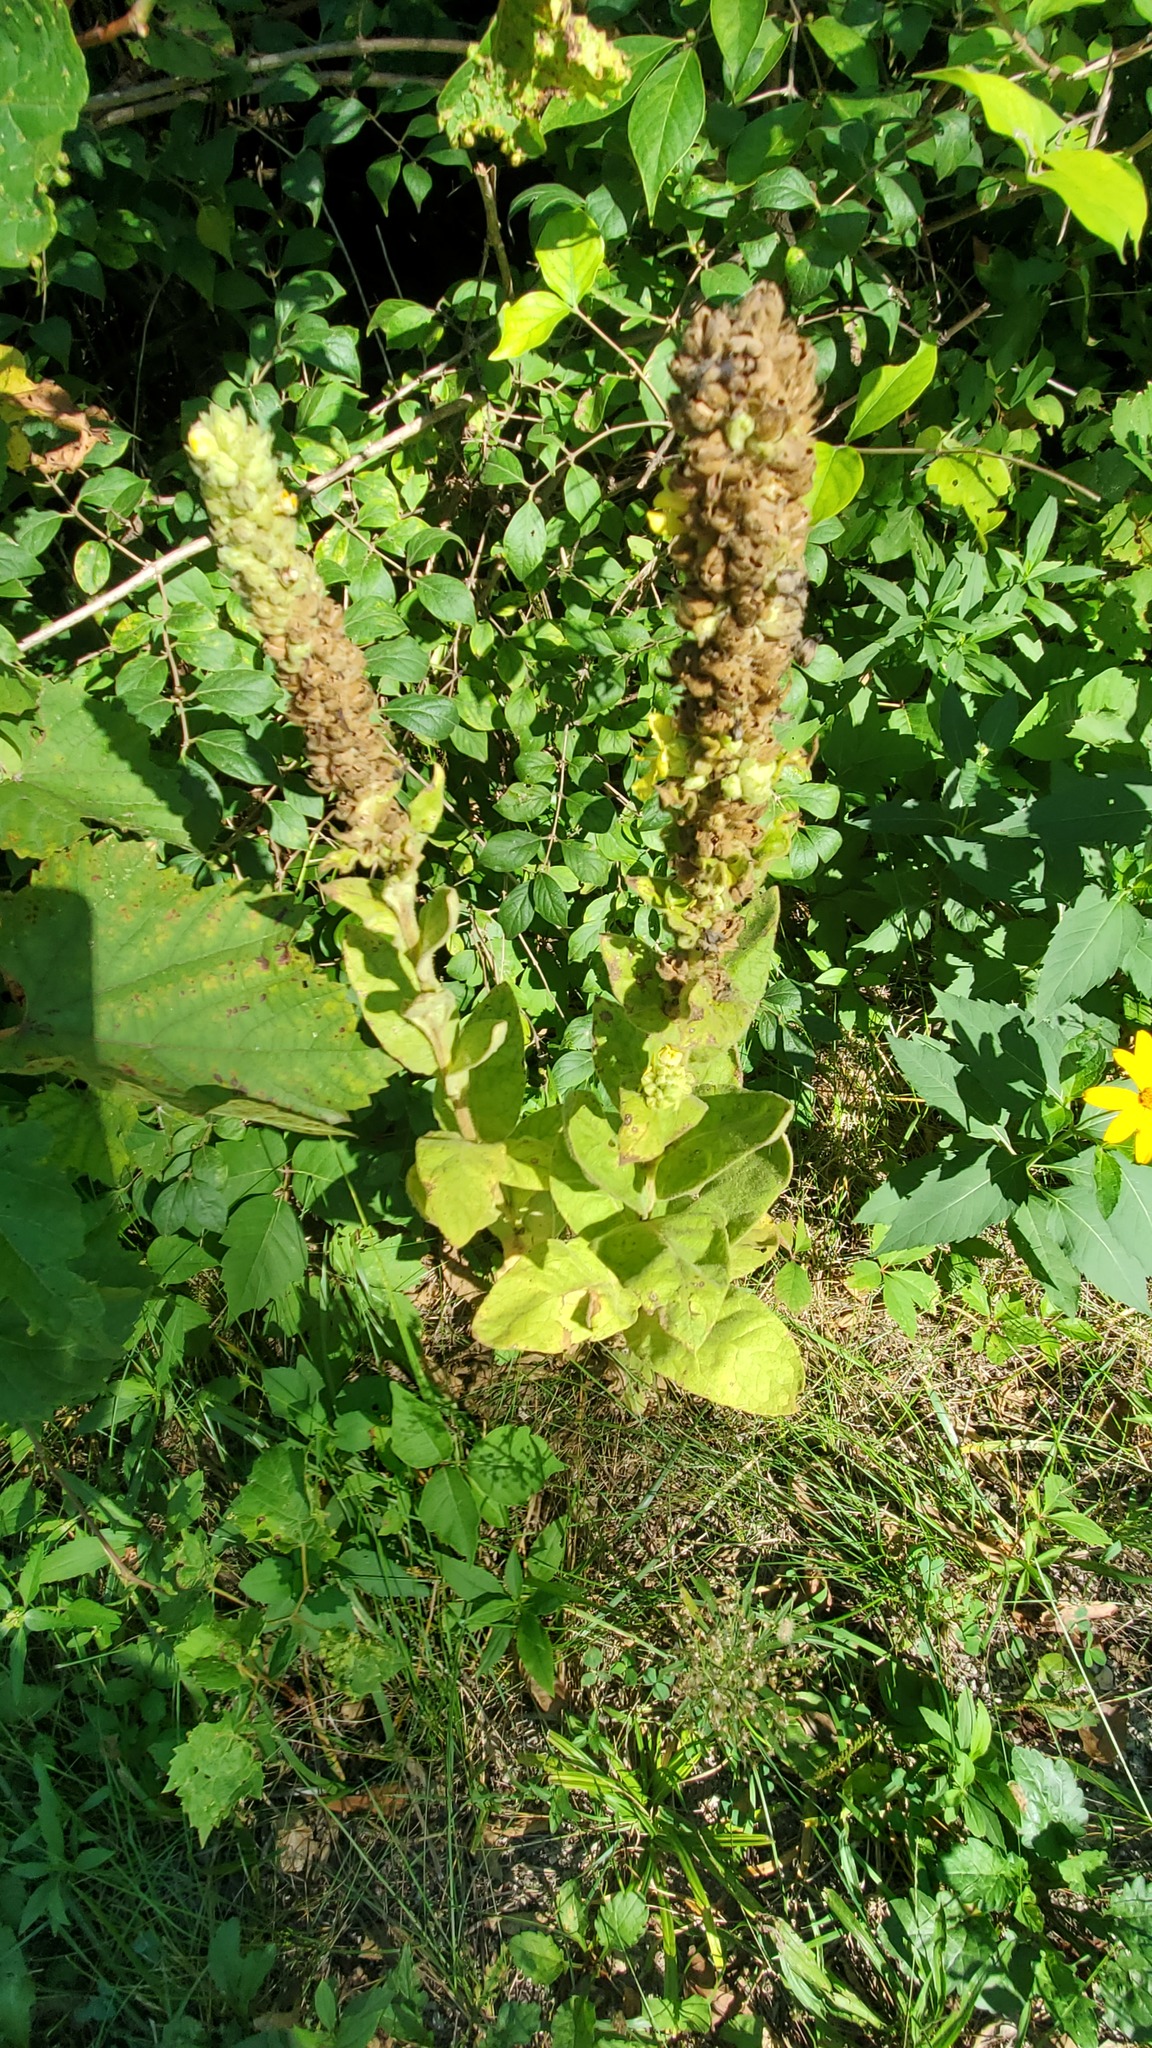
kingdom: Plantae
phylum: Tracheophyta
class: Magnoliopsida
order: Lamiales
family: Scrophulariaceae
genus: Verbascum
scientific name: Verbascum thapsus
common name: Common mullein
